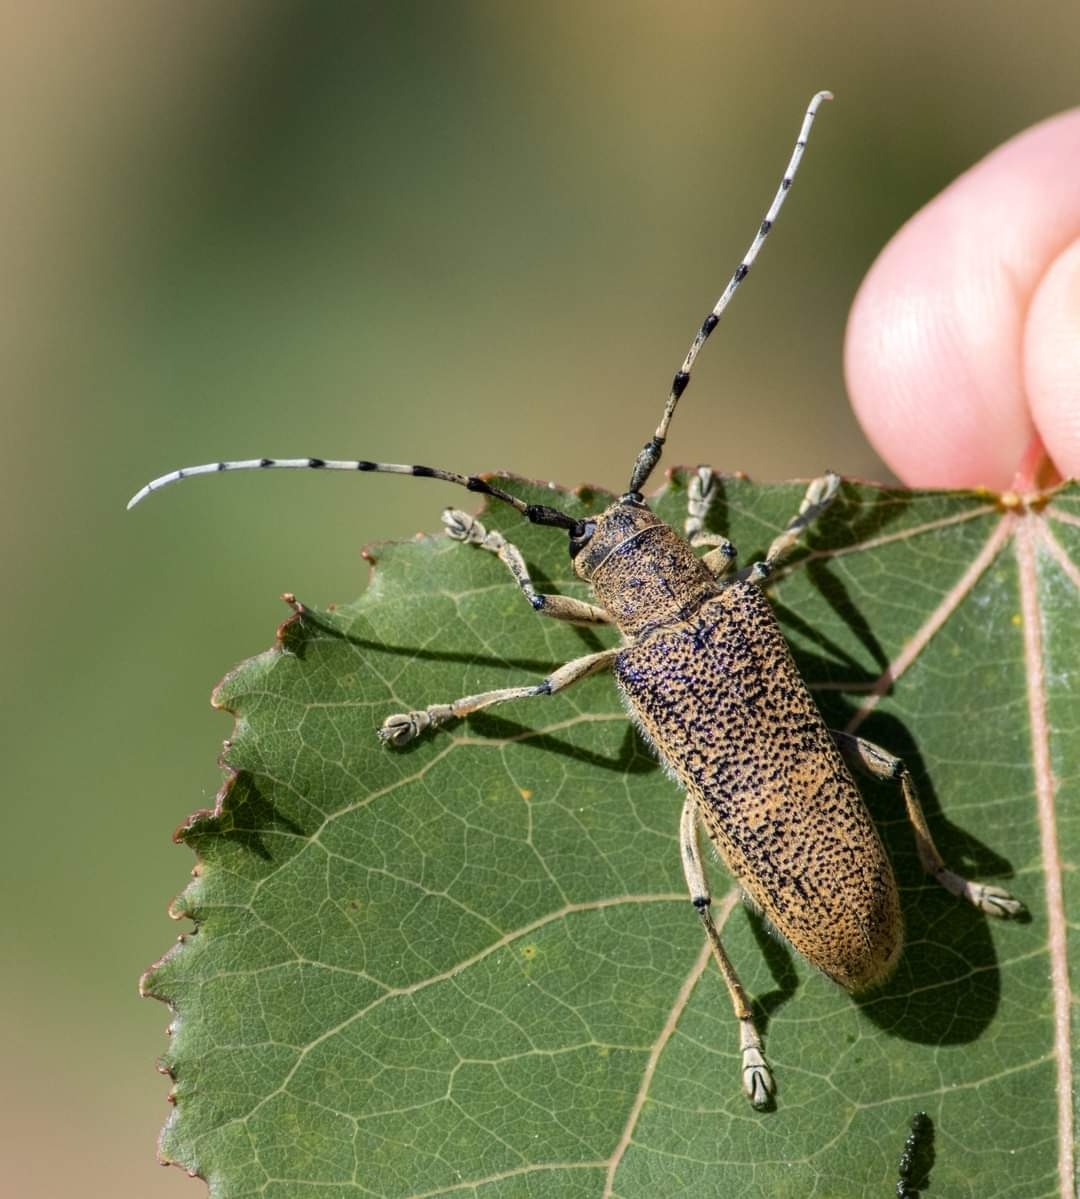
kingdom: Animalia
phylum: Arthropoda
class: Insecta
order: Coleoptera
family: Cerambycidae
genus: Saperda
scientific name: Saperda carcharias
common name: Poplar borer
